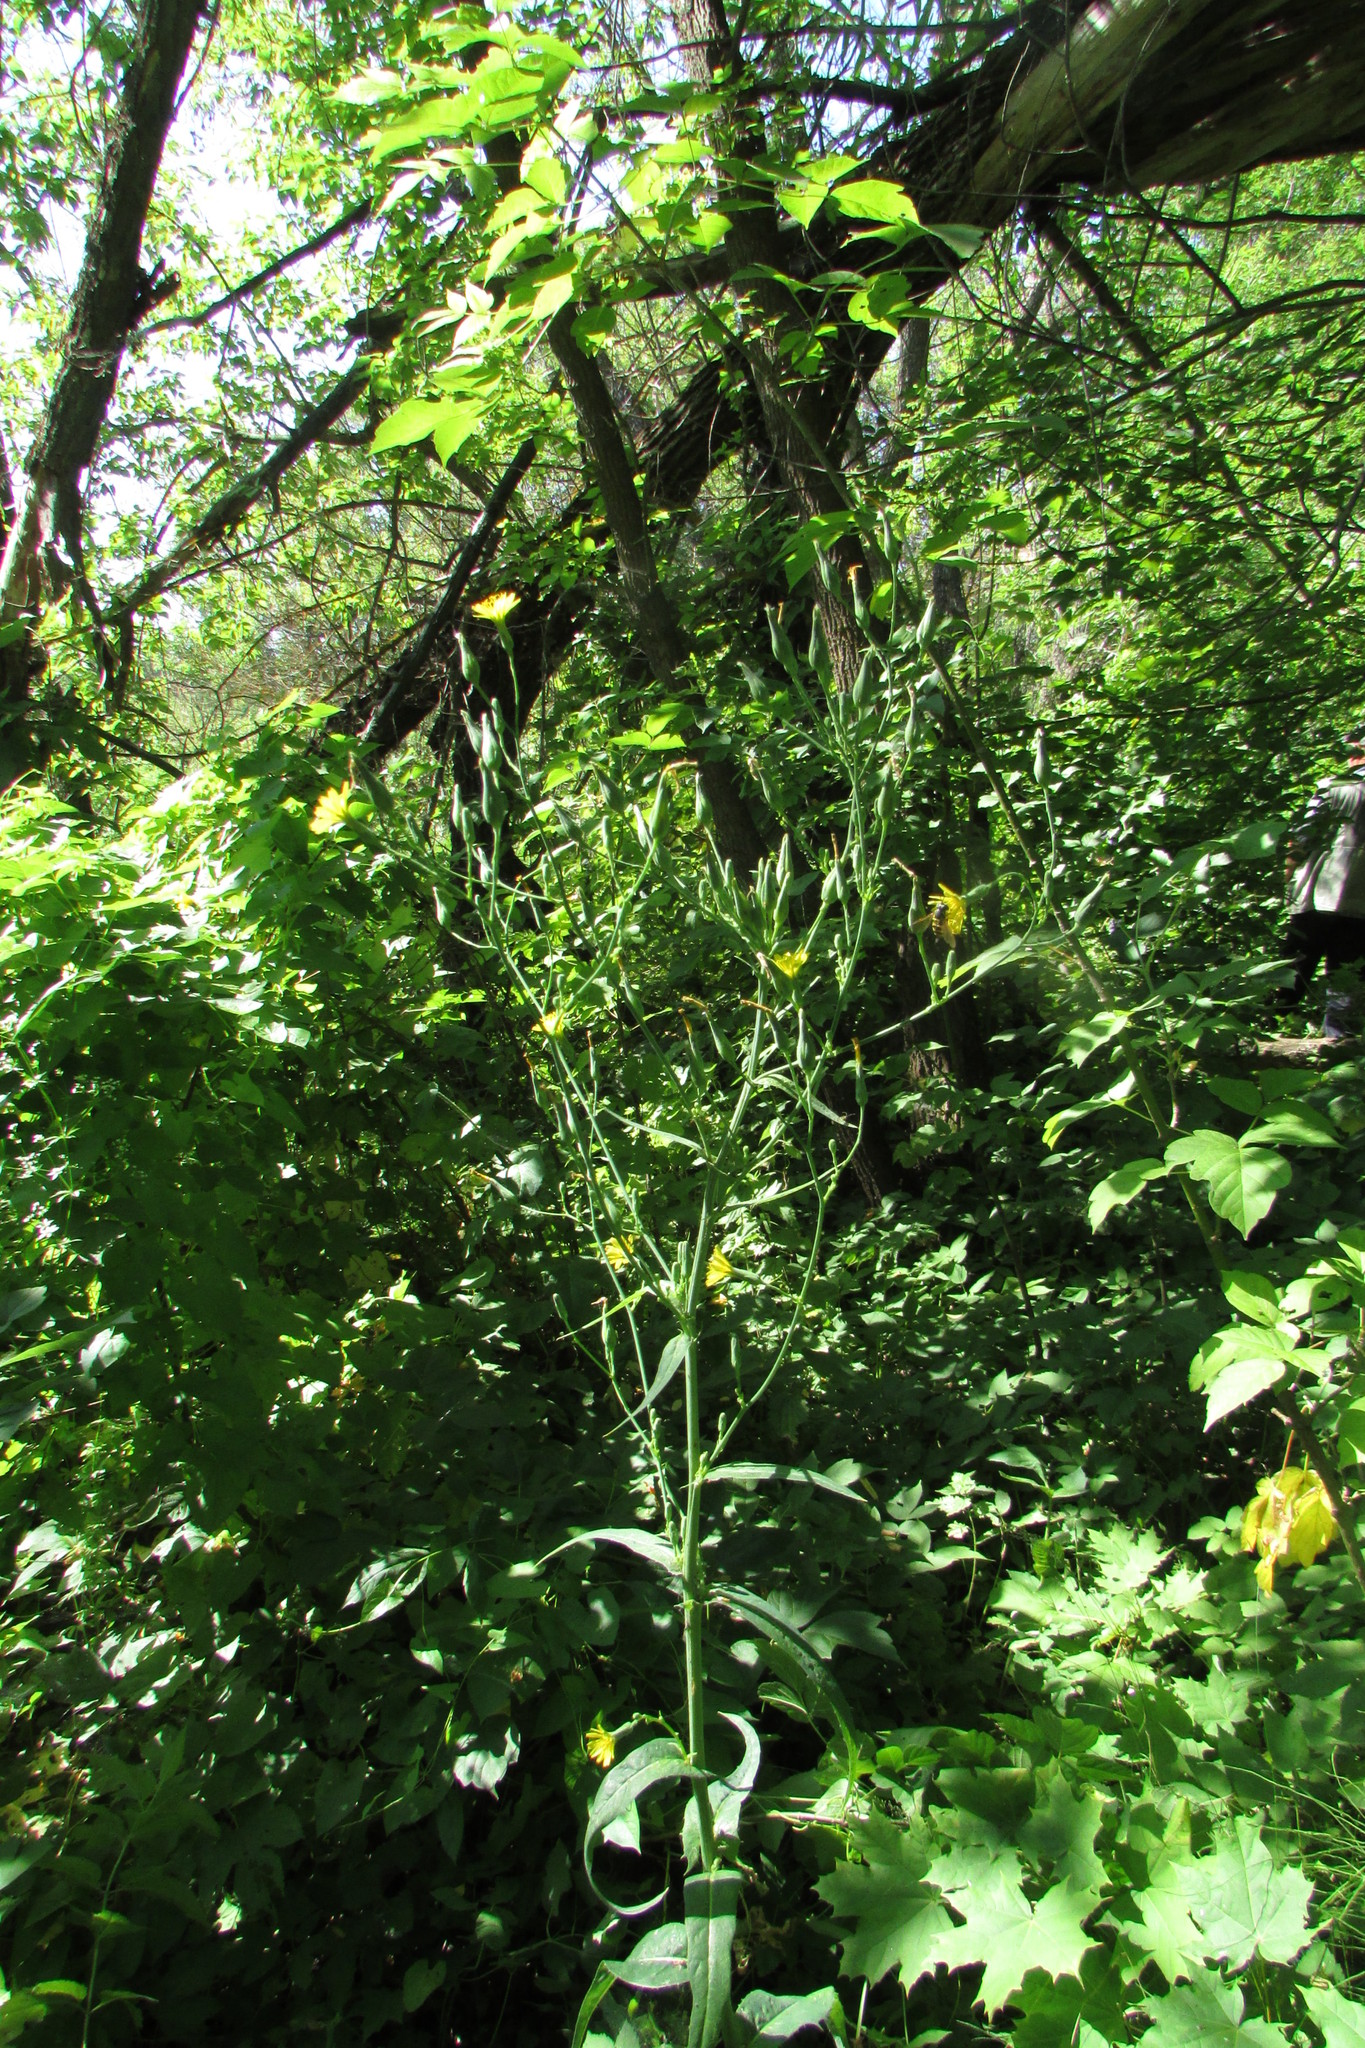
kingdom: Plantae
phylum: Tracheophyta
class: Magnoliopsida
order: Asterales
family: Asteraceae
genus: Lactuca
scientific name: Lactuca quercina
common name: Wild lettuce
